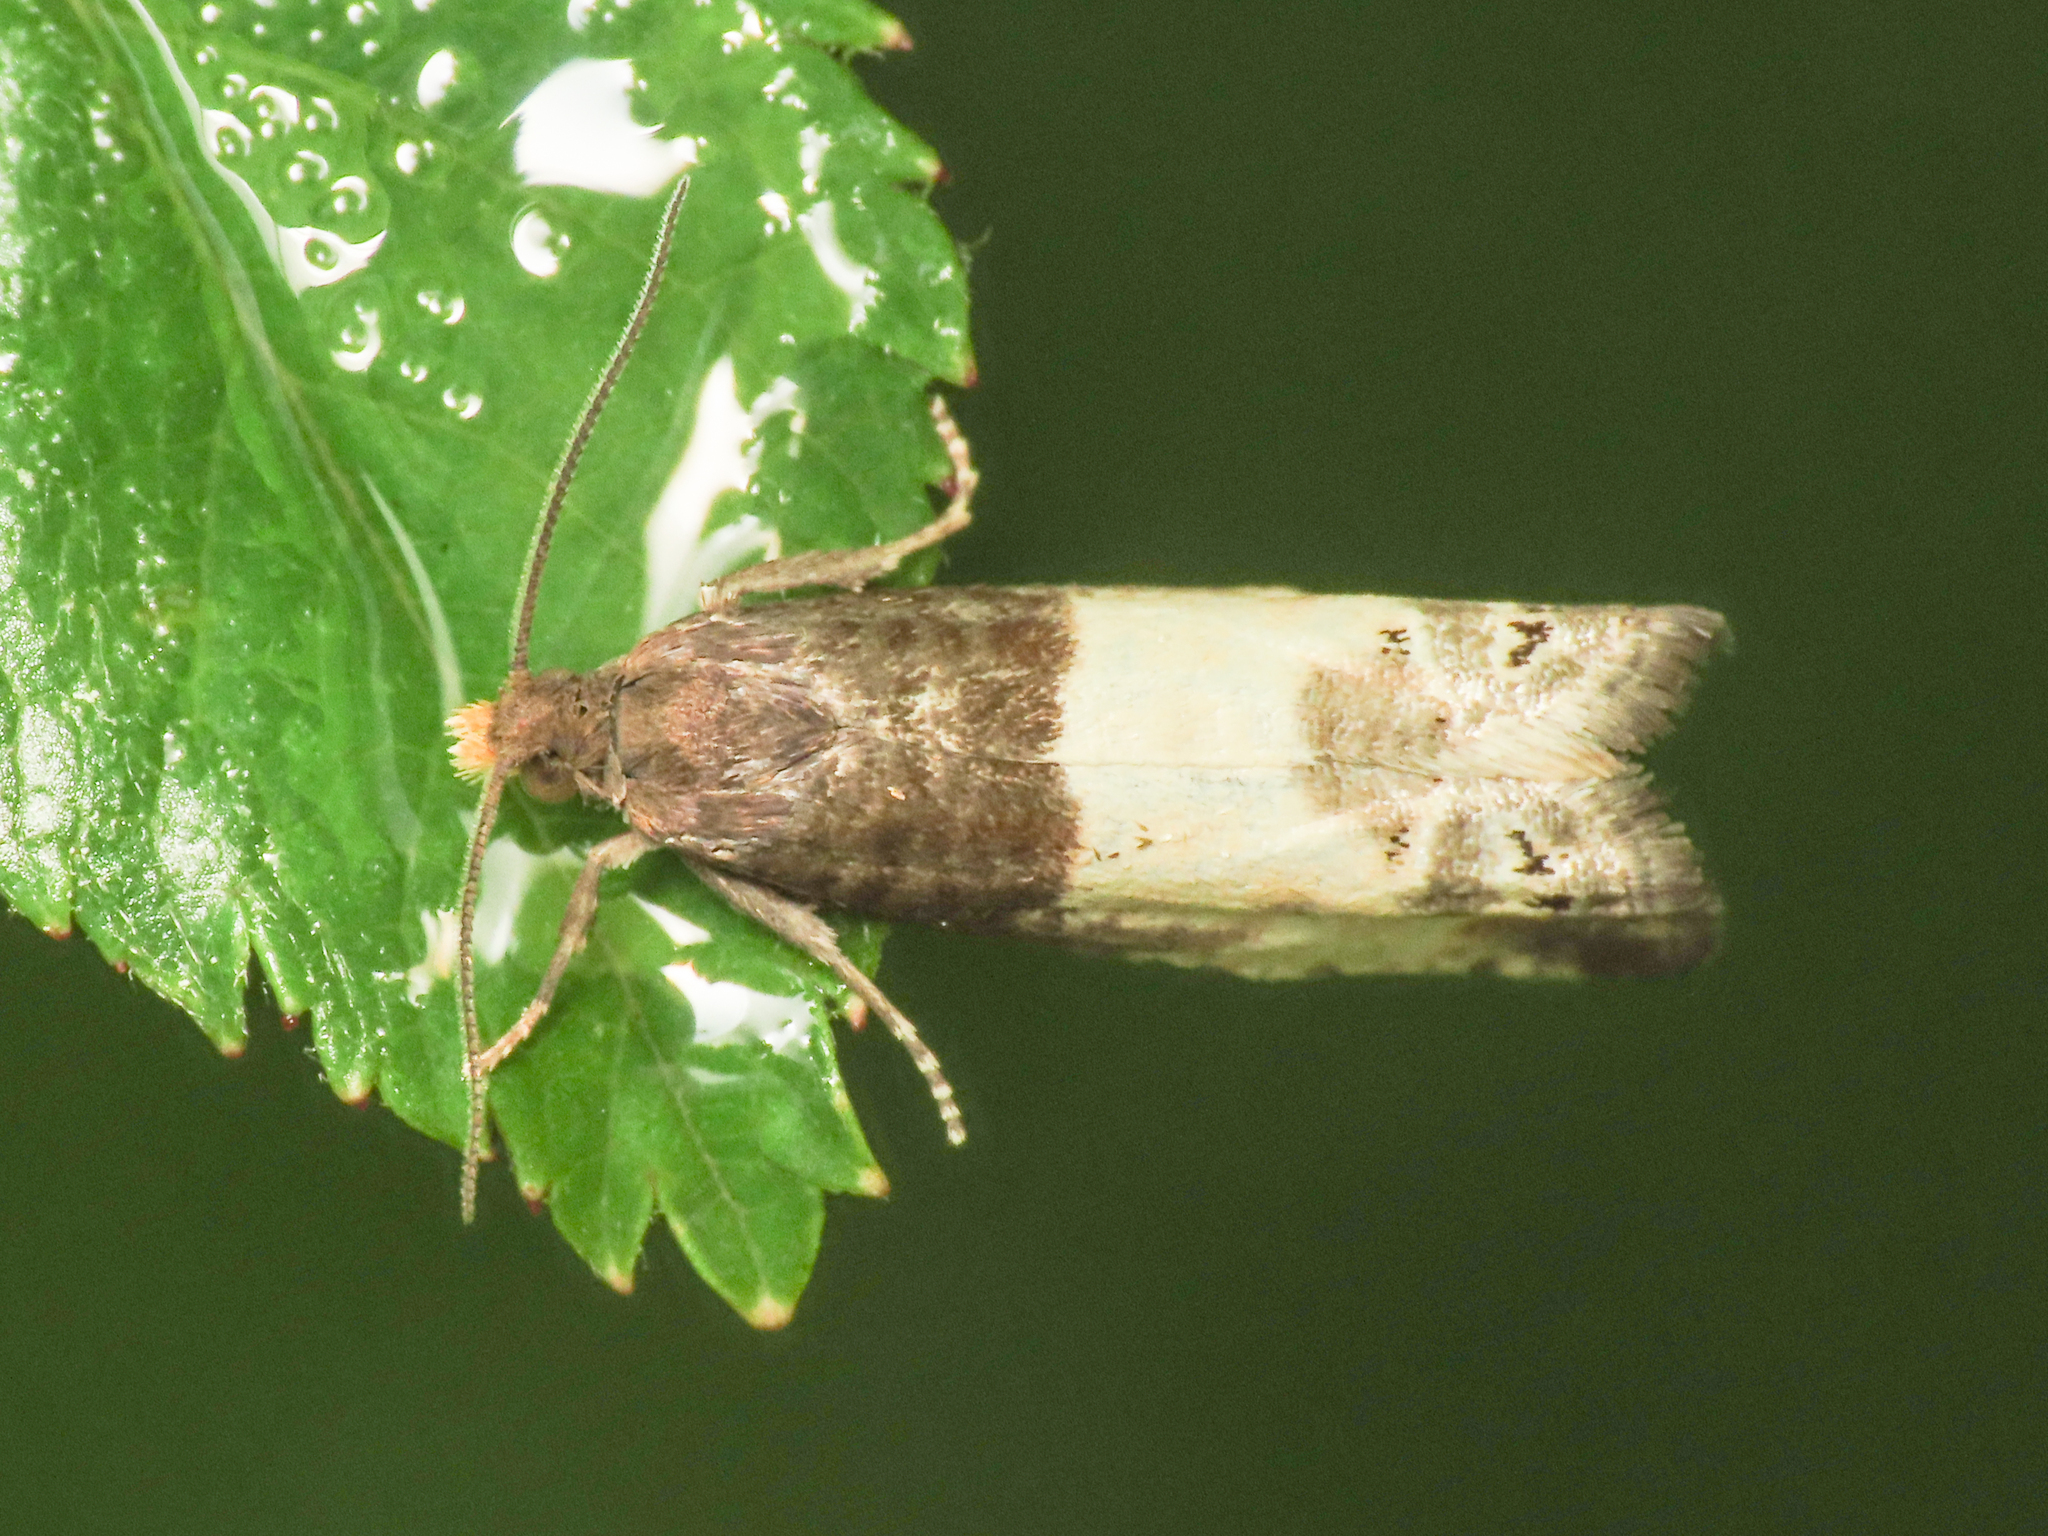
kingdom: Animalia
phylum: Arthropoda
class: Insecta
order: Lepidoptera
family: Tortricidae
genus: Notocelia
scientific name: Notocelia cynosbatella
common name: Yellow-faced bell moth
